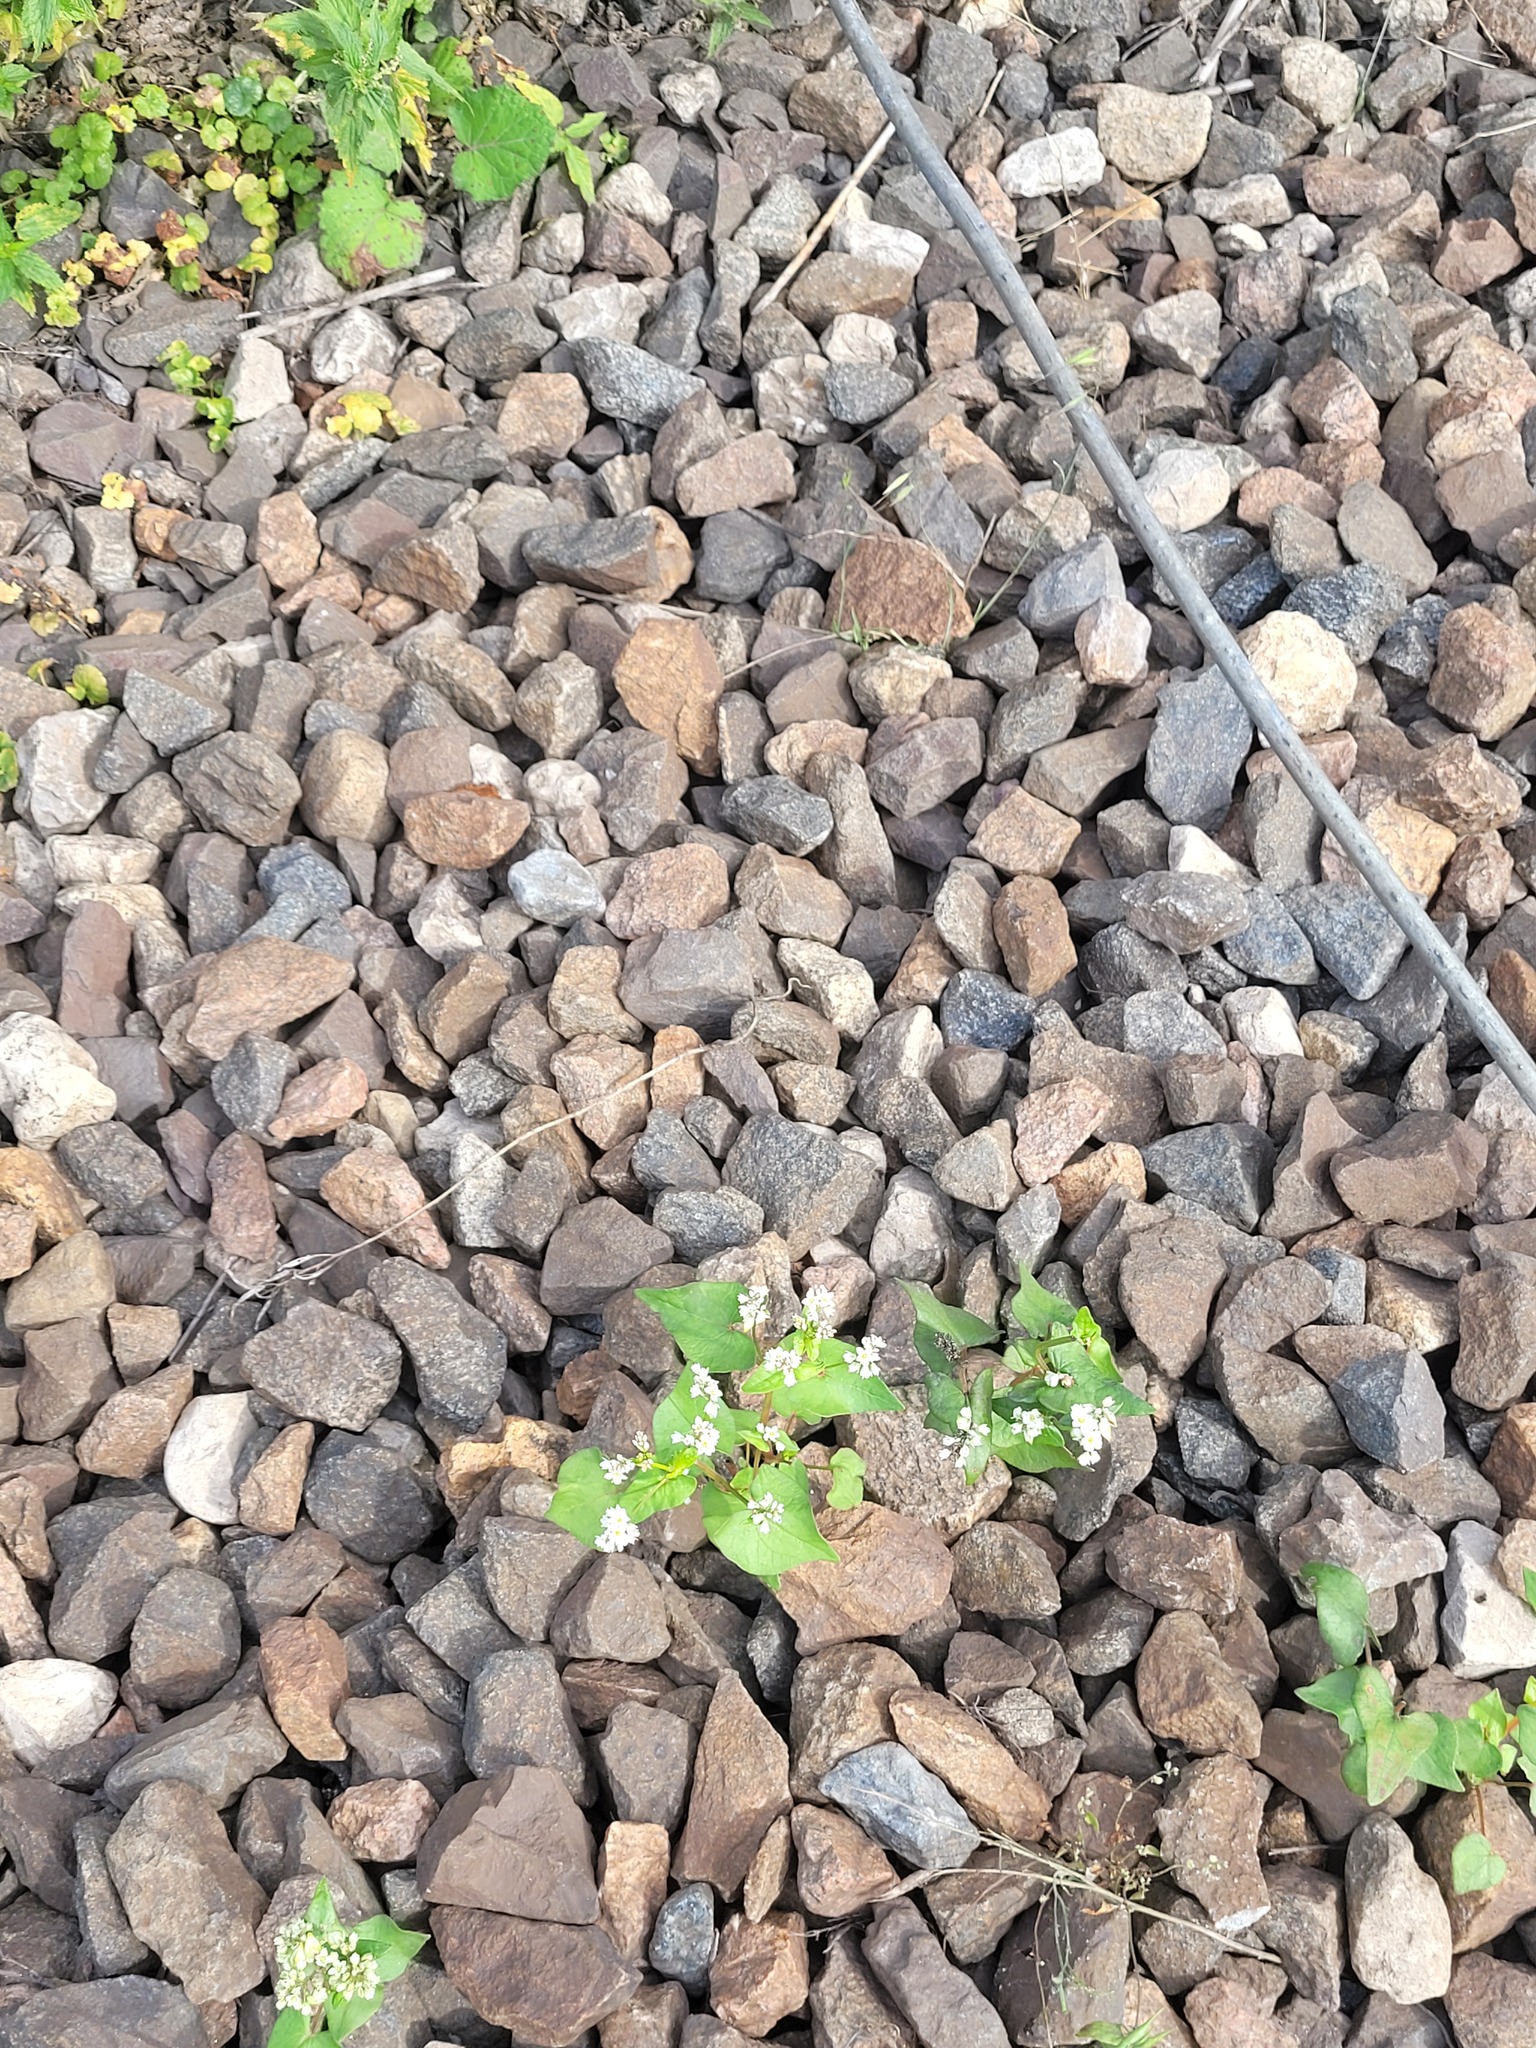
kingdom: Plantae
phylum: Tracheophyta
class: Magnoliopsida
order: Caryophyllales
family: Polygonaceae
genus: Fagopyrum
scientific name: Fagopyrum esculentum
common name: Buckwheat
